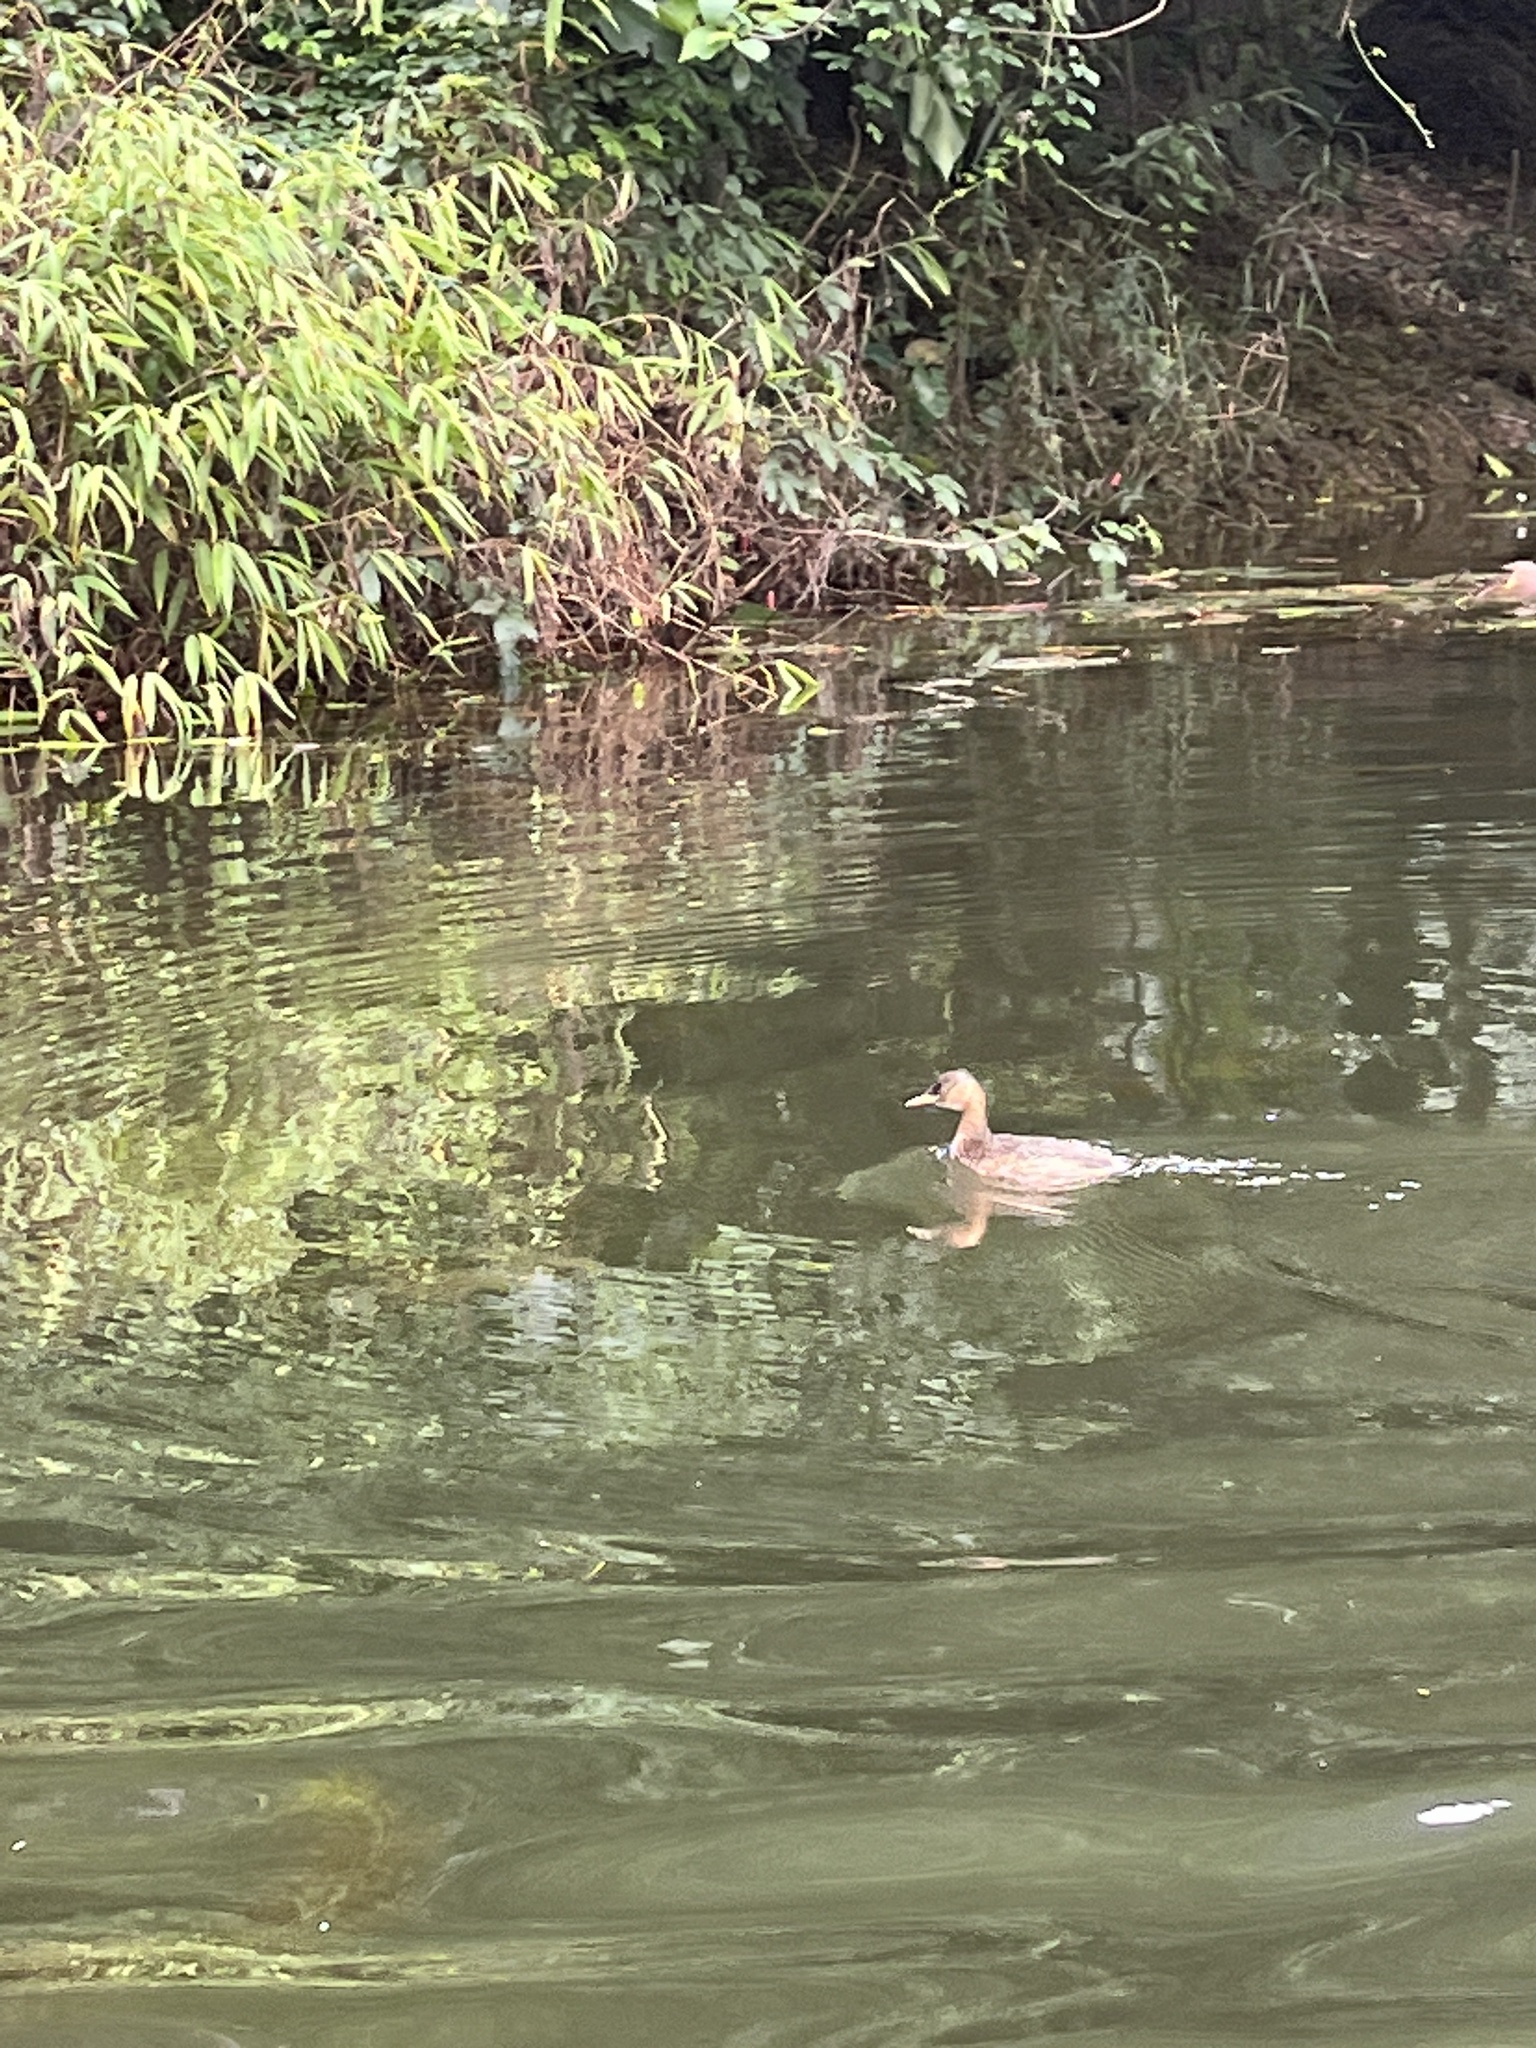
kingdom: Animalia
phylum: Chordata
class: Aves
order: Podicipediformes
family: Podicipedidae
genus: Tachybaptus
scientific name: Tachybaptus ruficollis
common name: Little grebe
